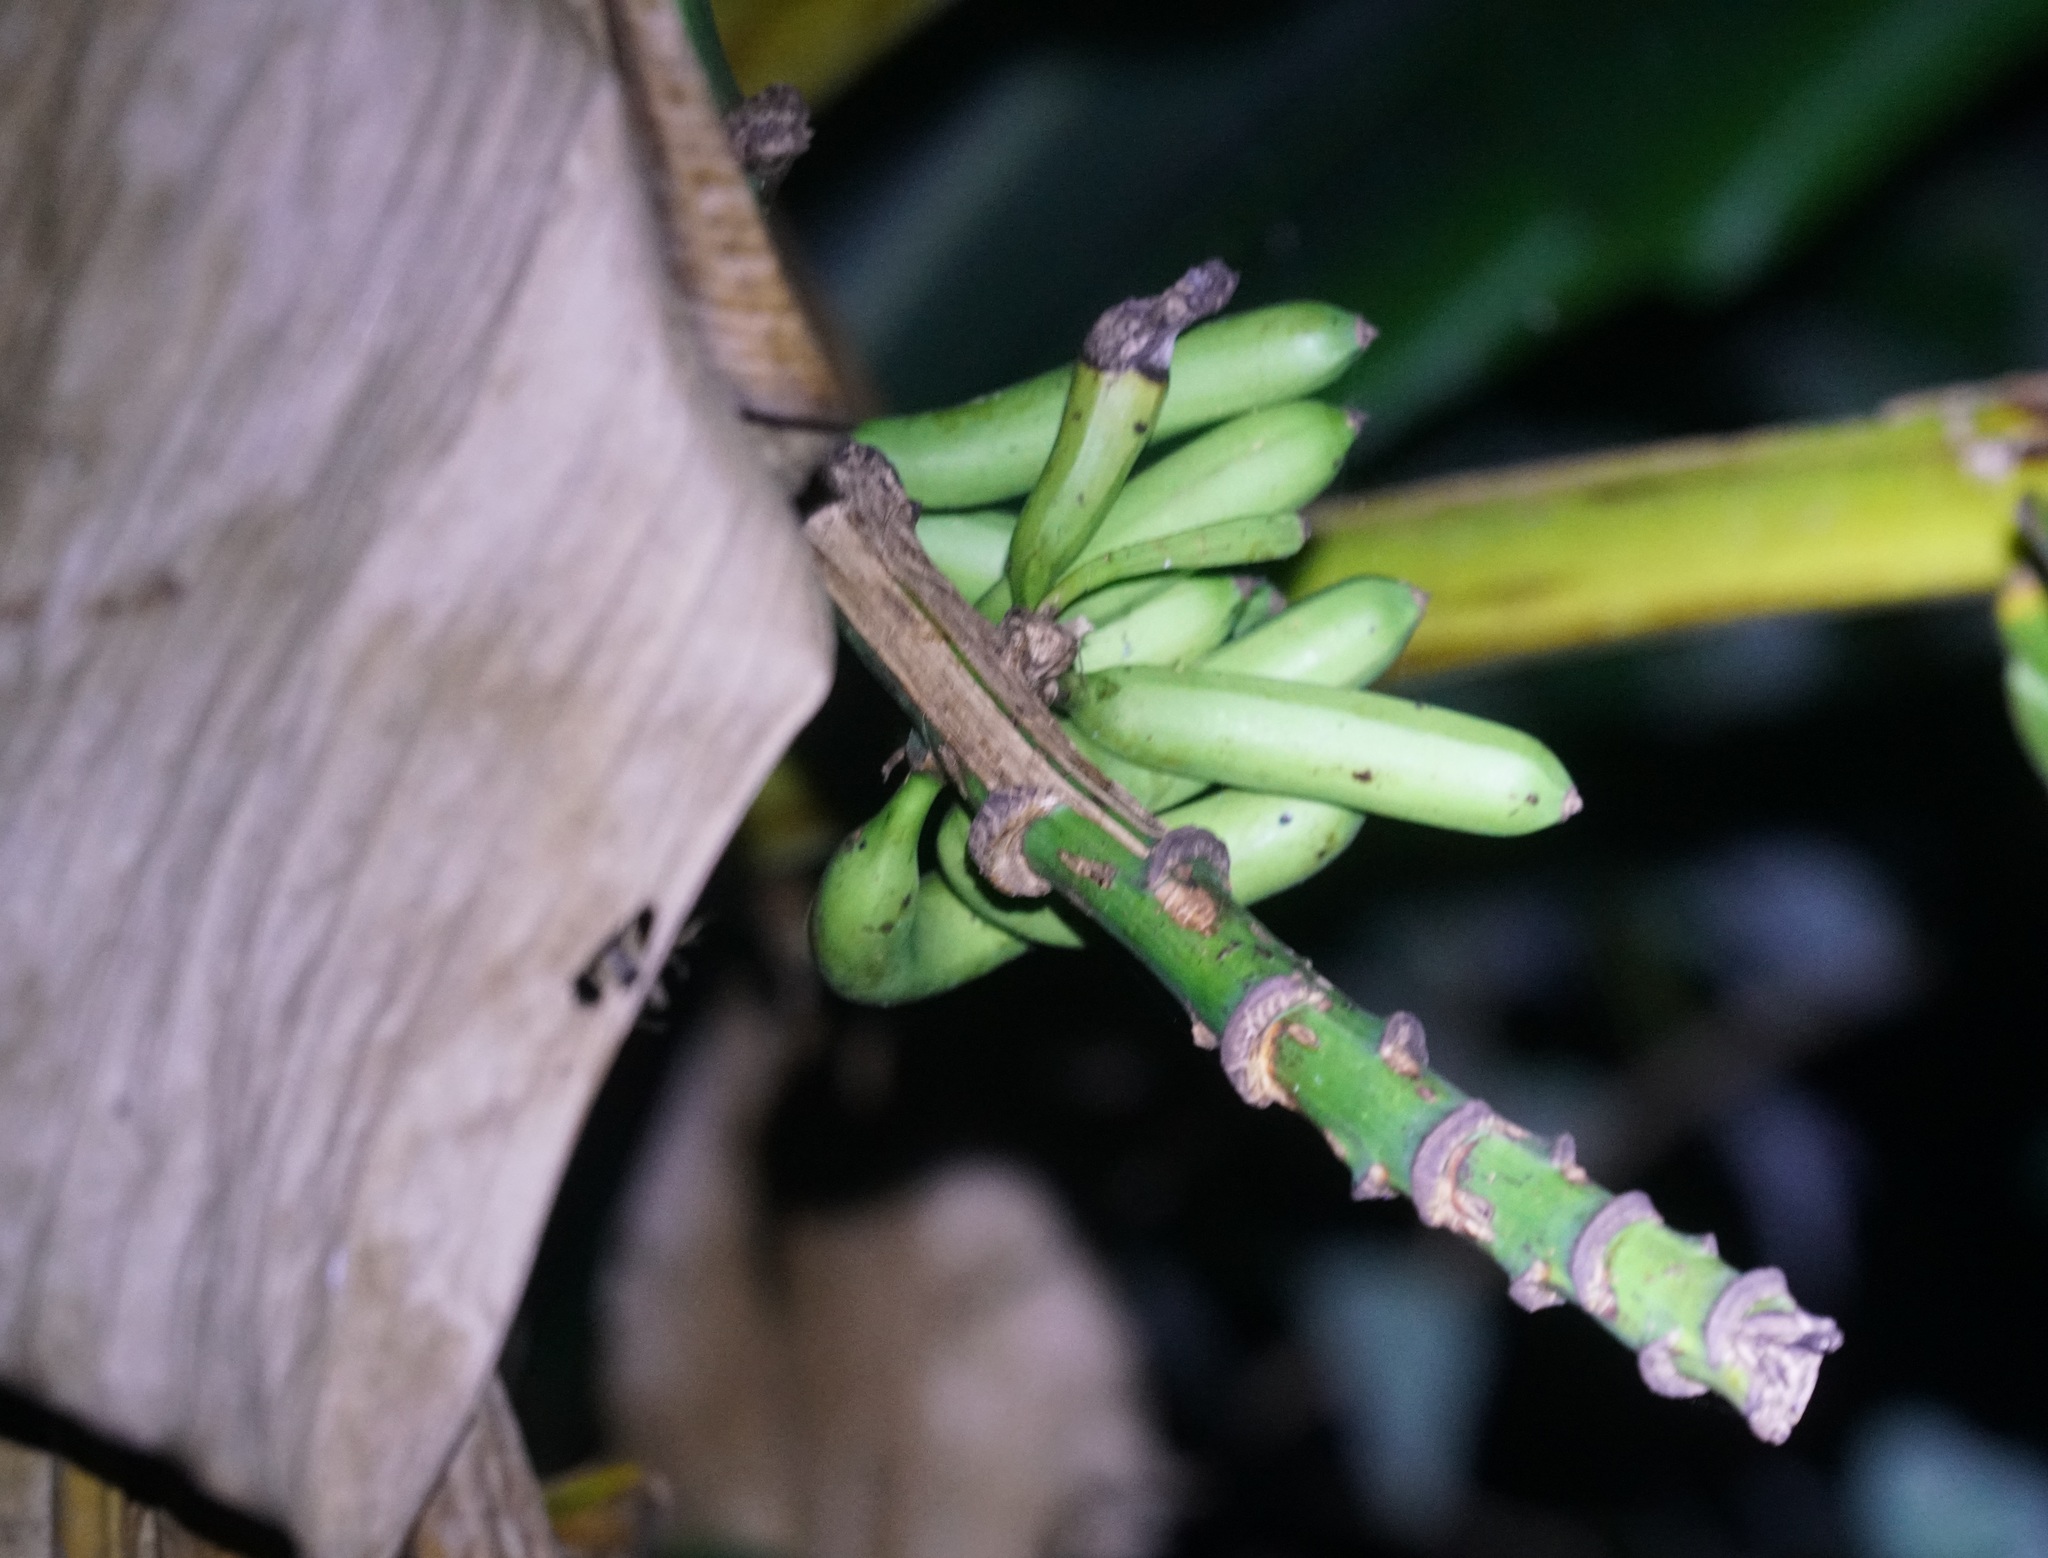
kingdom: Plantae
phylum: Tracheophyta
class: Liliopsida
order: Zingiberales
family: Musaceae
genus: Musa
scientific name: Musa banksii
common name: Maroon-stemmed banana
